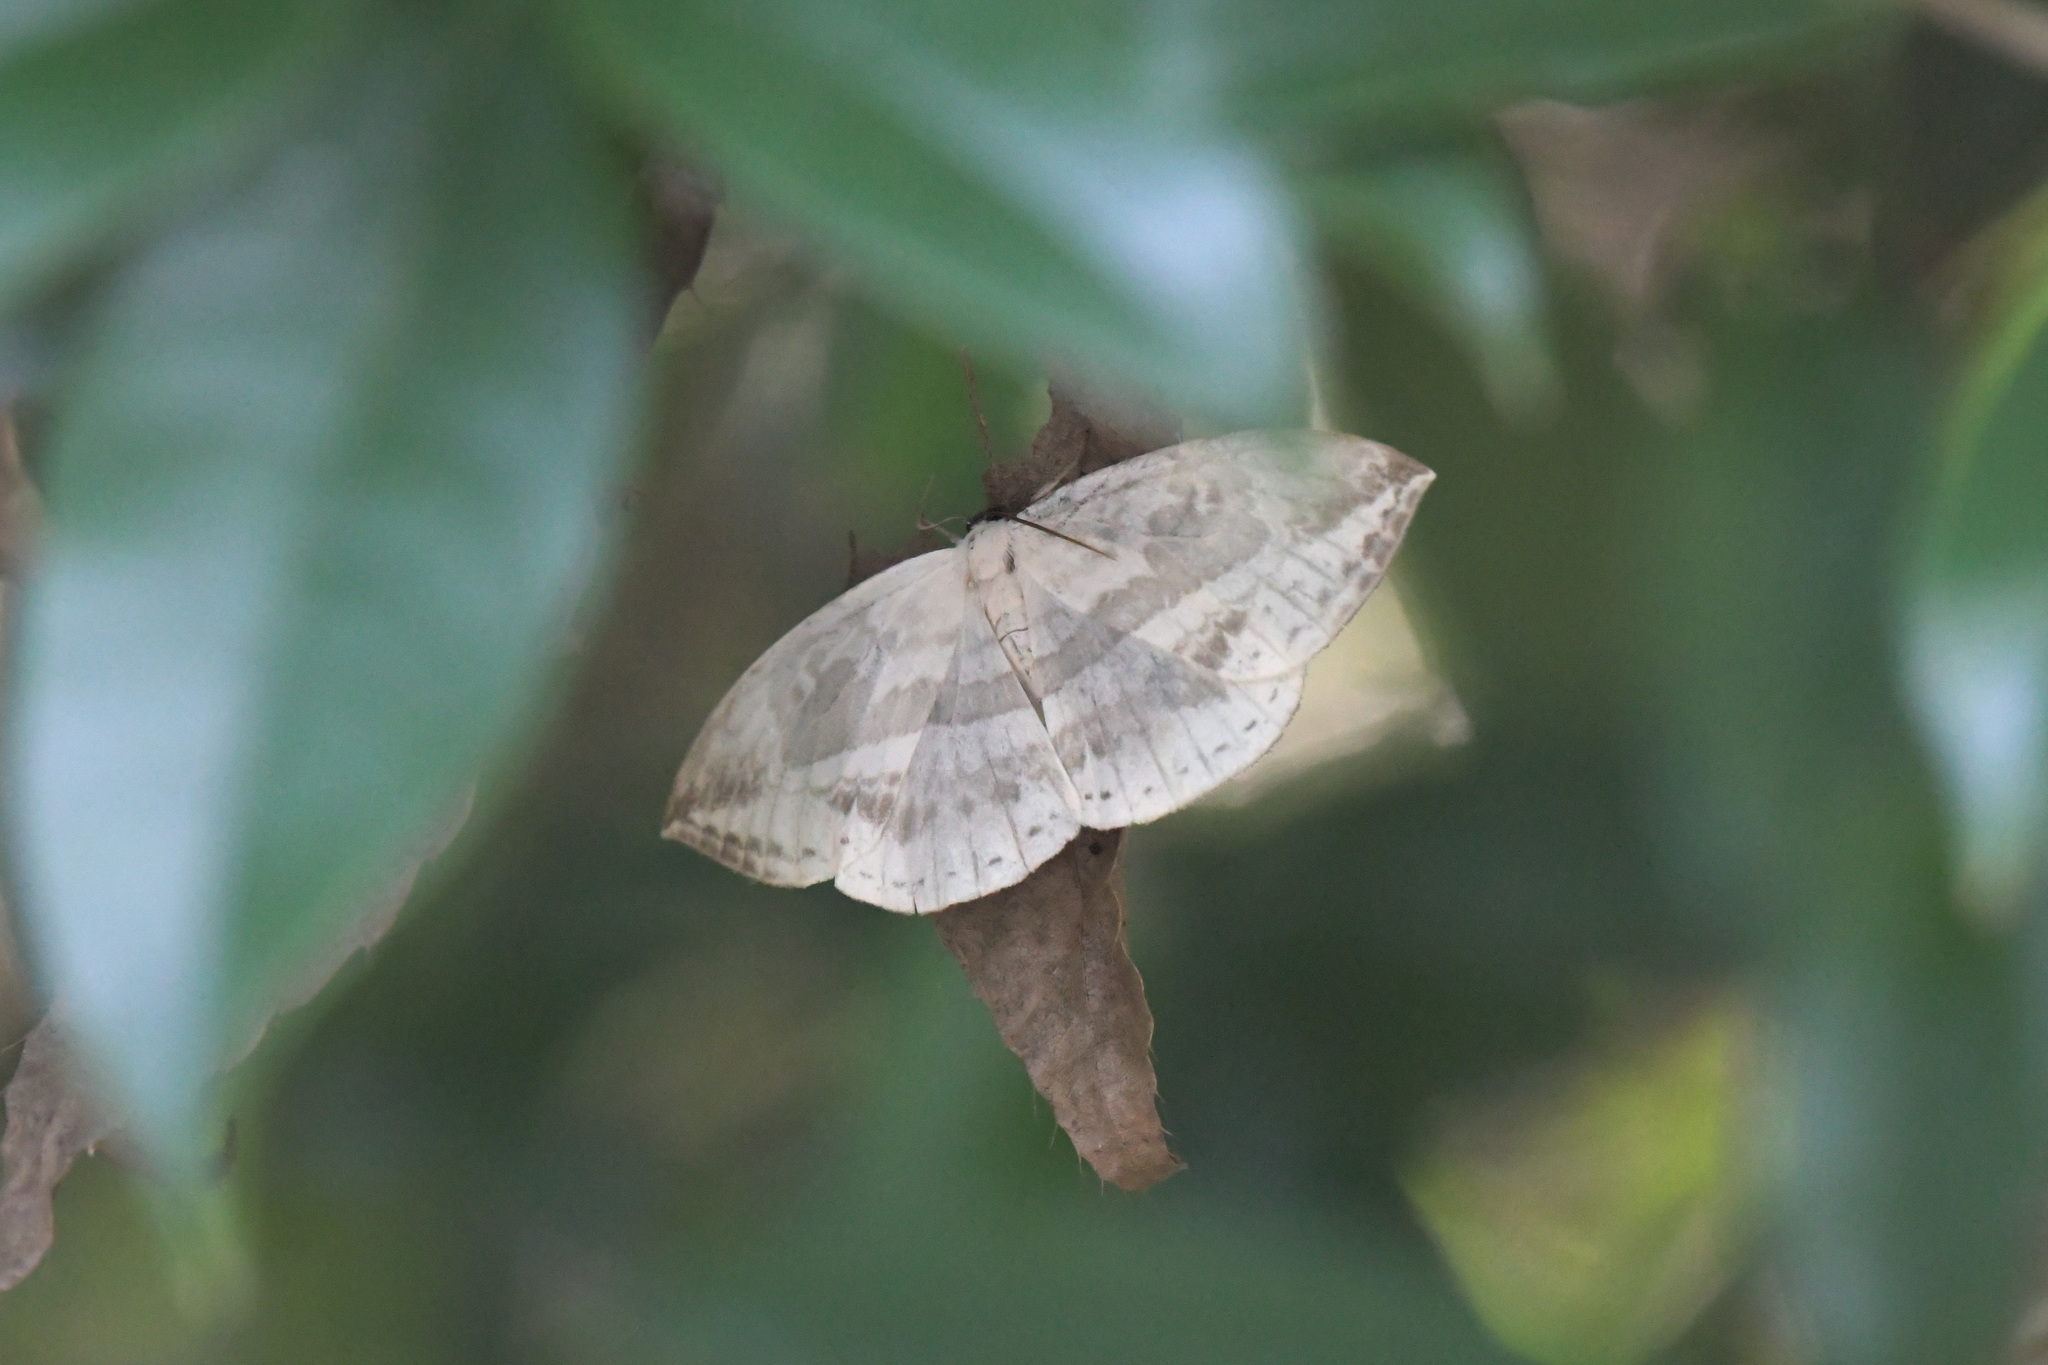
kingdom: Animalia
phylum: Arthropoda
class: Insecta
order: Lepidoptera
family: Drepanidae
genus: Cyclidia
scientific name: Cyclidia substigmaria
